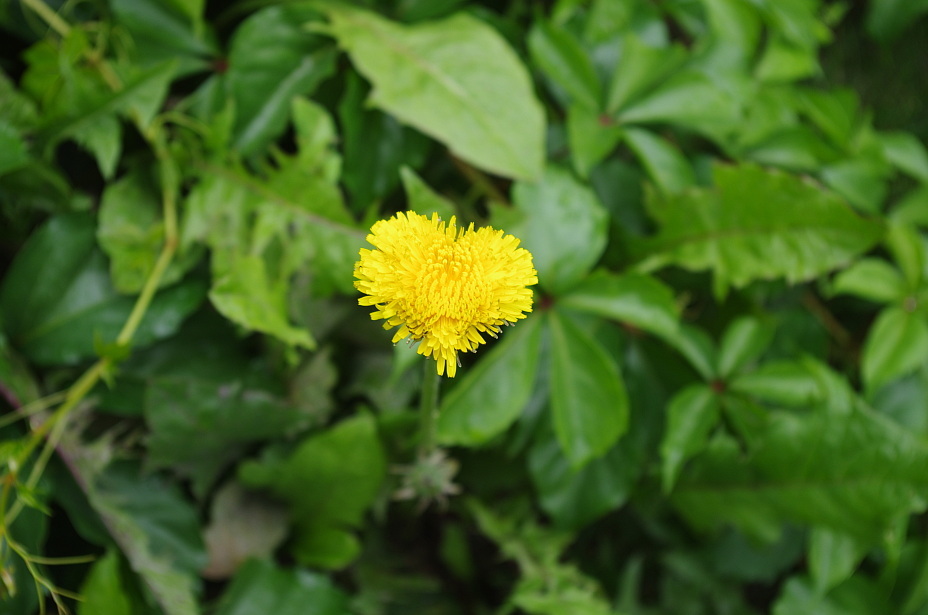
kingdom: Plantae
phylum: Tracheophyta
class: Magnoliopsida
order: Asterales
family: Asteraceae
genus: Taraxacum
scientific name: Taraxacum officinale
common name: Common dandelion
